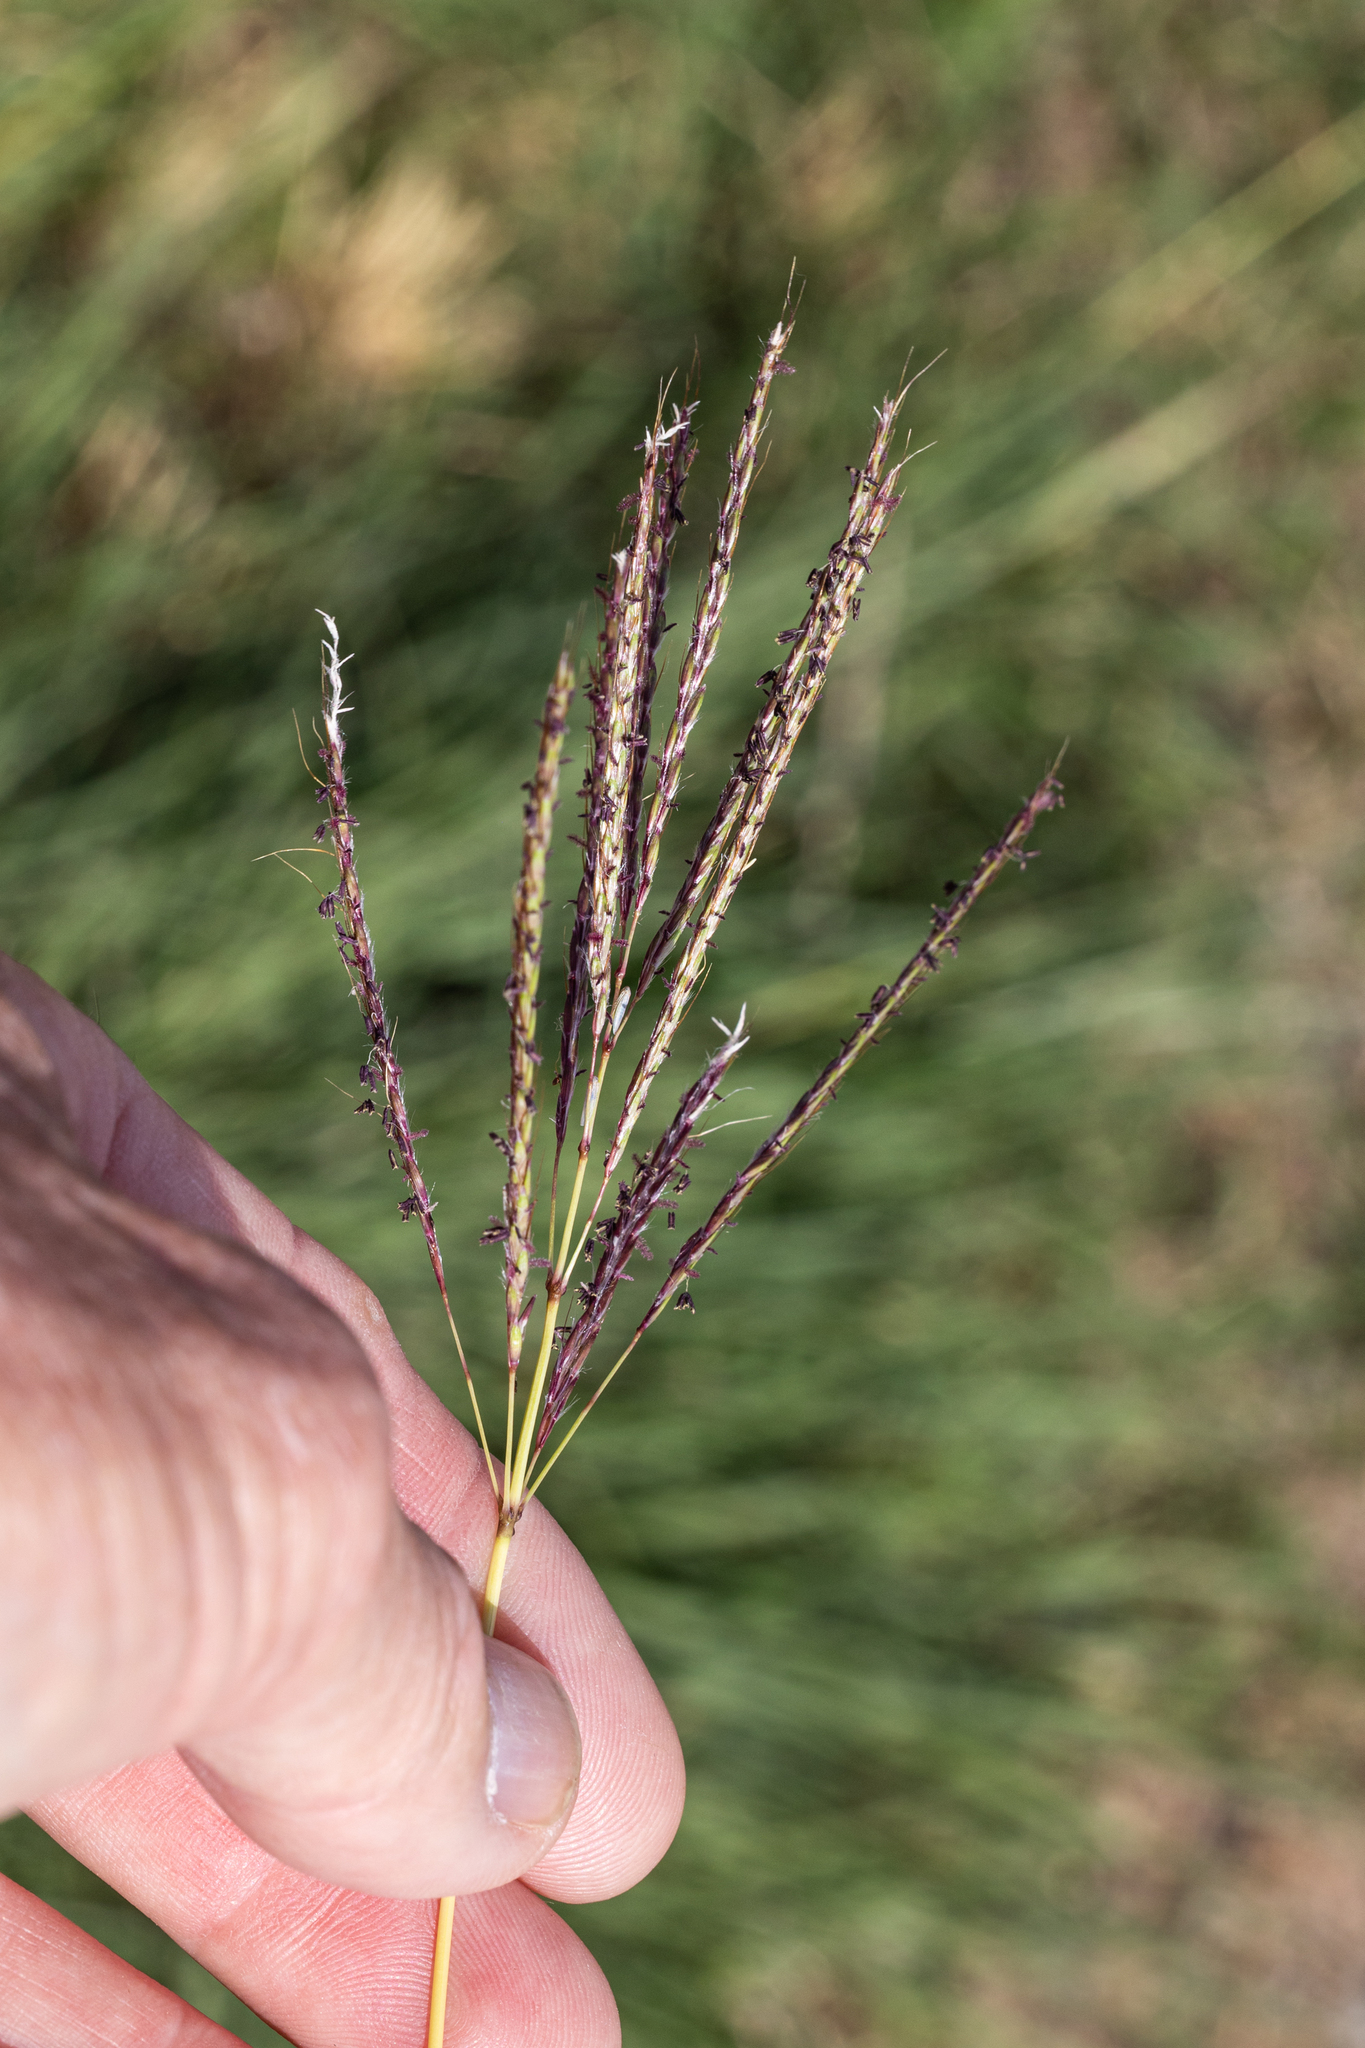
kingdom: Plantae
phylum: Tracheophyta
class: Liliopsida
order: Poales
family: Poaceae
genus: Bothriochloa
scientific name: Bothriochloa ischaemum
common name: Yellow bluestem
